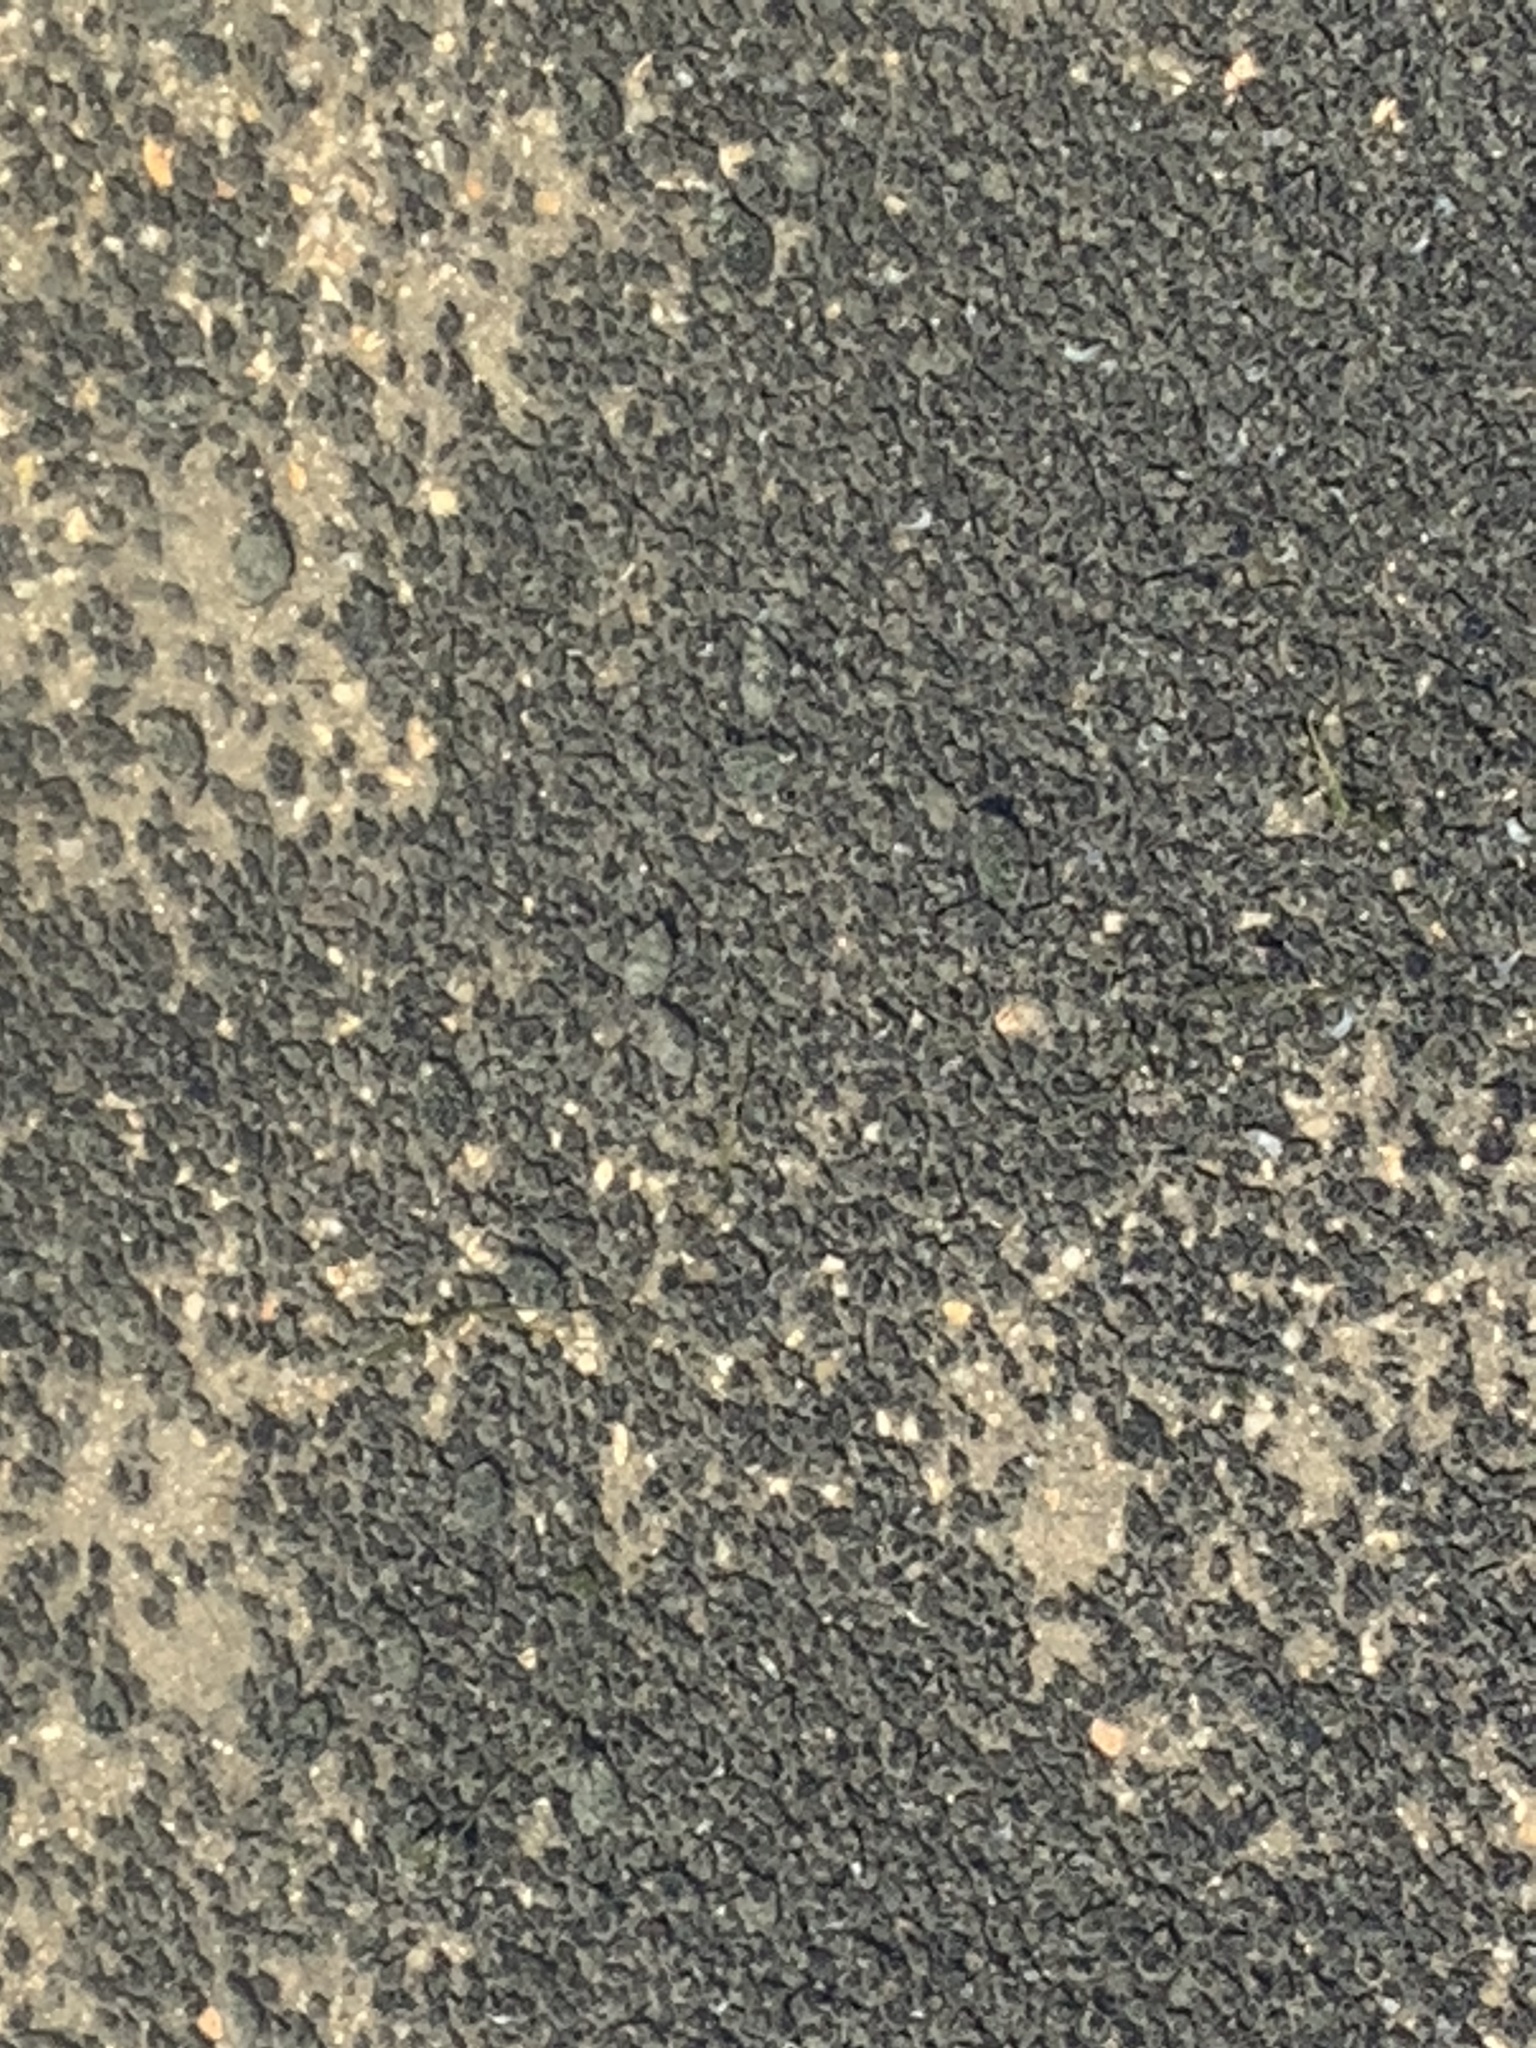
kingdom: Animalia
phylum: Mollusca
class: Gastropoda
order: Neogastropoda
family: Nassariidae
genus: Ilyanassa
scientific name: Ilyanassa obsoleta
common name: Eastern mudsnail
